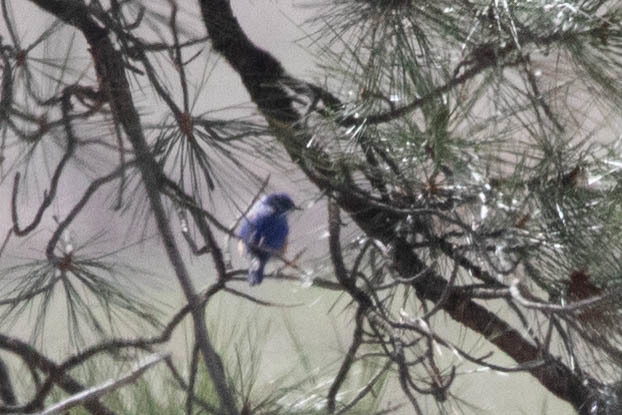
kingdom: Animalia
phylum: Chordata
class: Aves
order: Passeriformes
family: Turdidae
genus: Sialia
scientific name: Sialia mexicana
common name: Western bluebird
